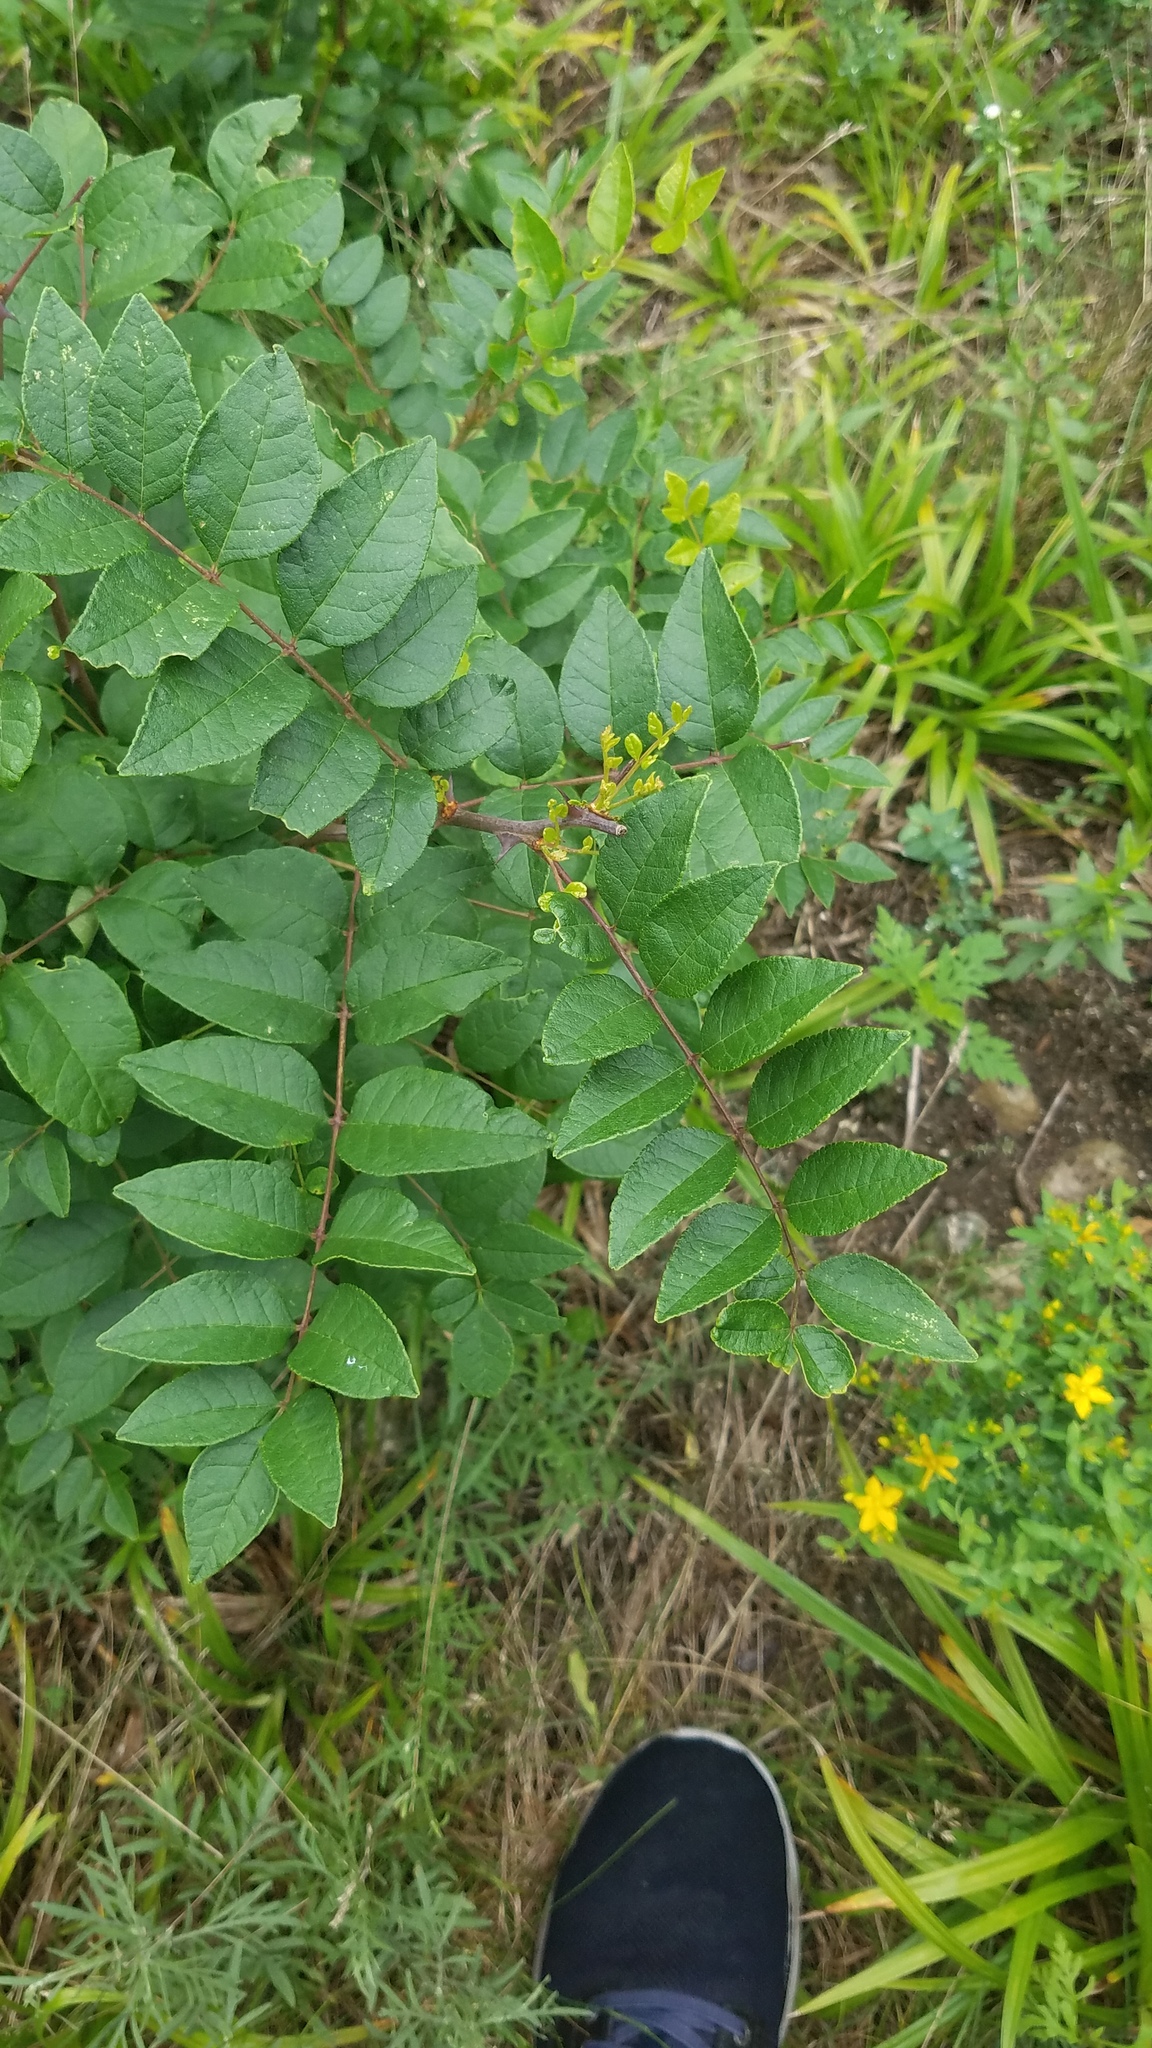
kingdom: Plantae
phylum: Tracheophyta
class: Magnoliopsida
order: Sapindales
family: Rutaceae
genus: Zanthoxylum
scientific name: Zanthoxylum americanum
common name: Northern prickly-ash
